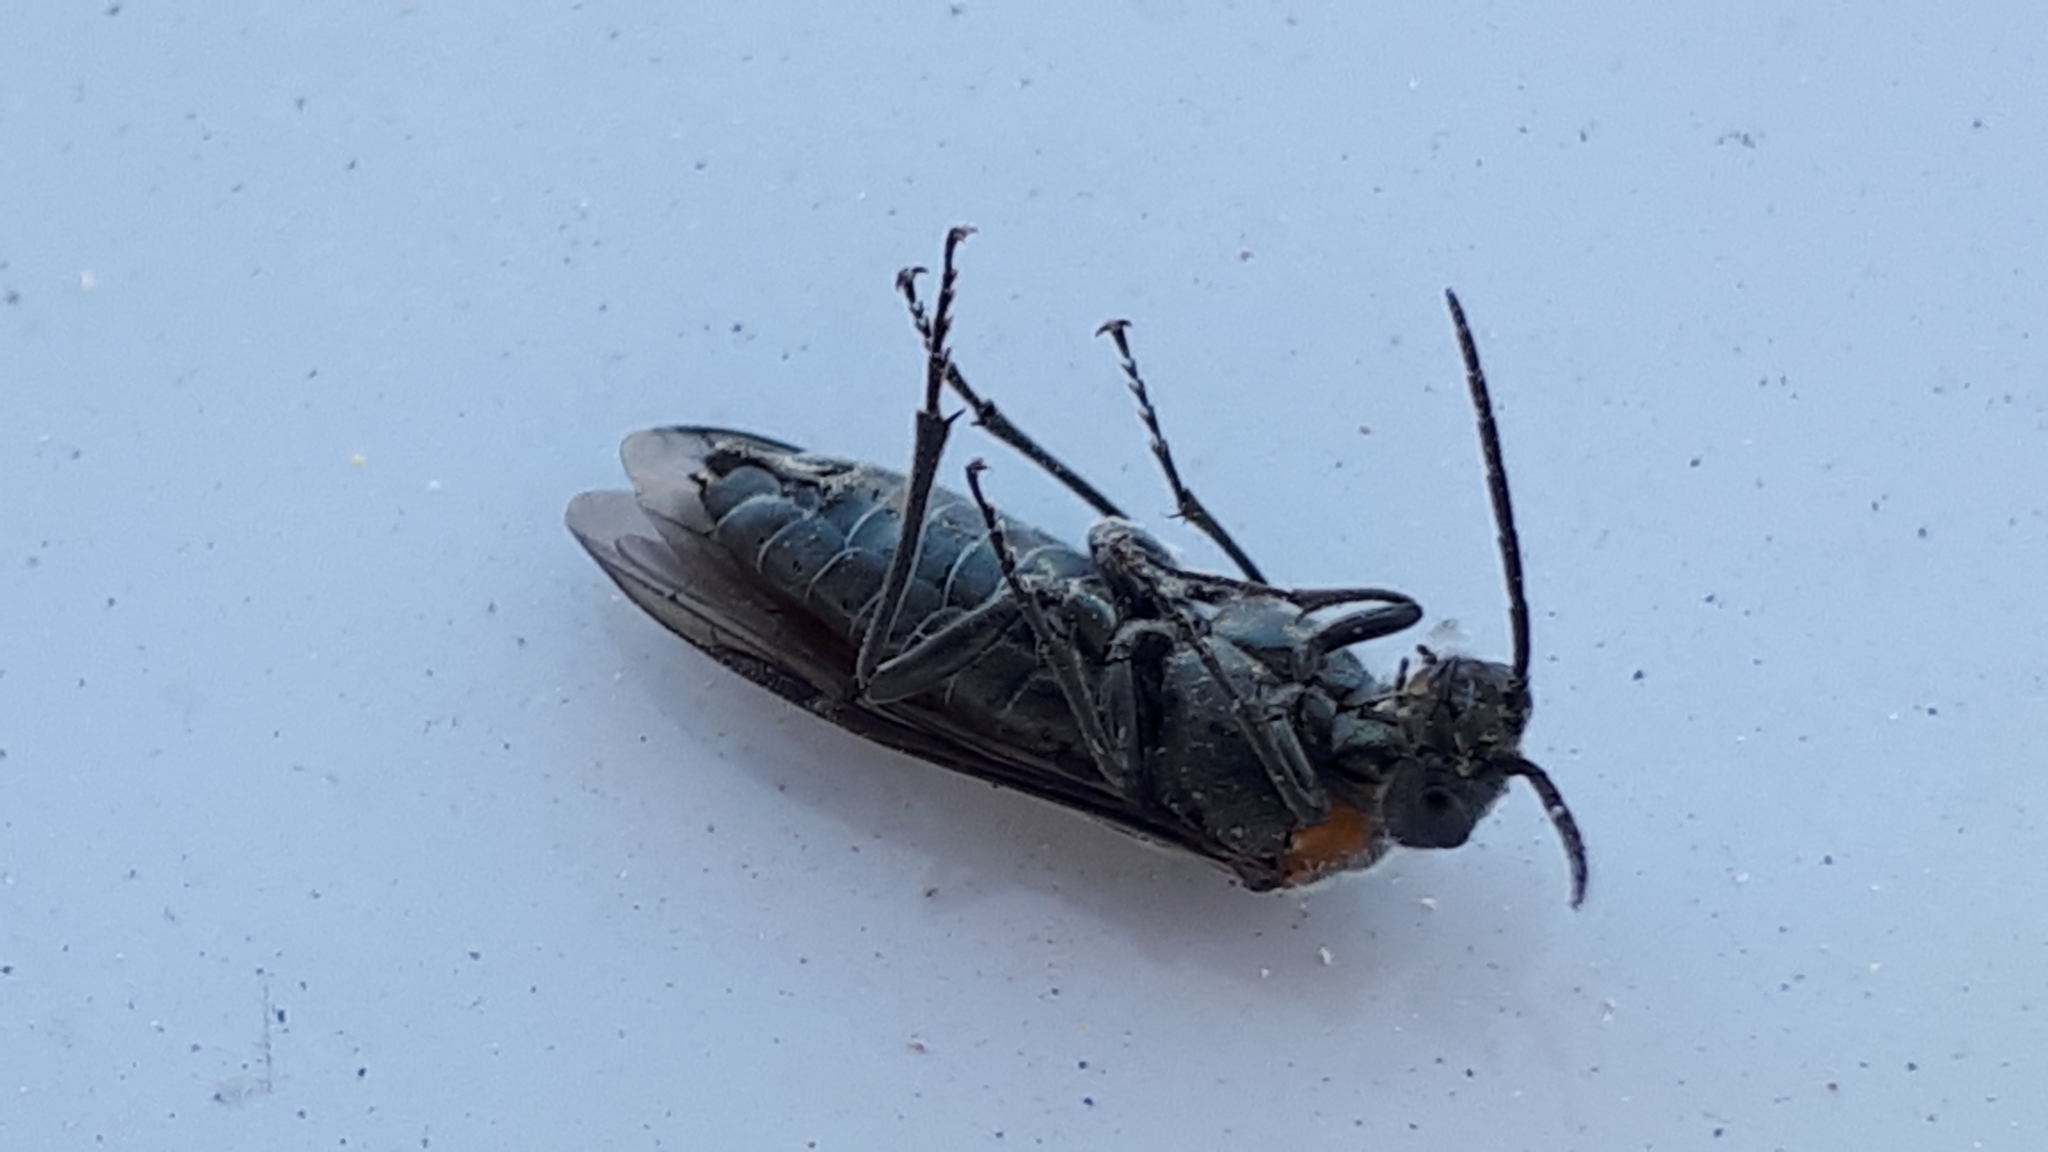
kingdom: Animalia
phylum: Arthropoda
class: Insecta
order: Hymenoptera
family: Tenthredinidae
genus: Dolerus
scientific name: Dolerus haematodes
